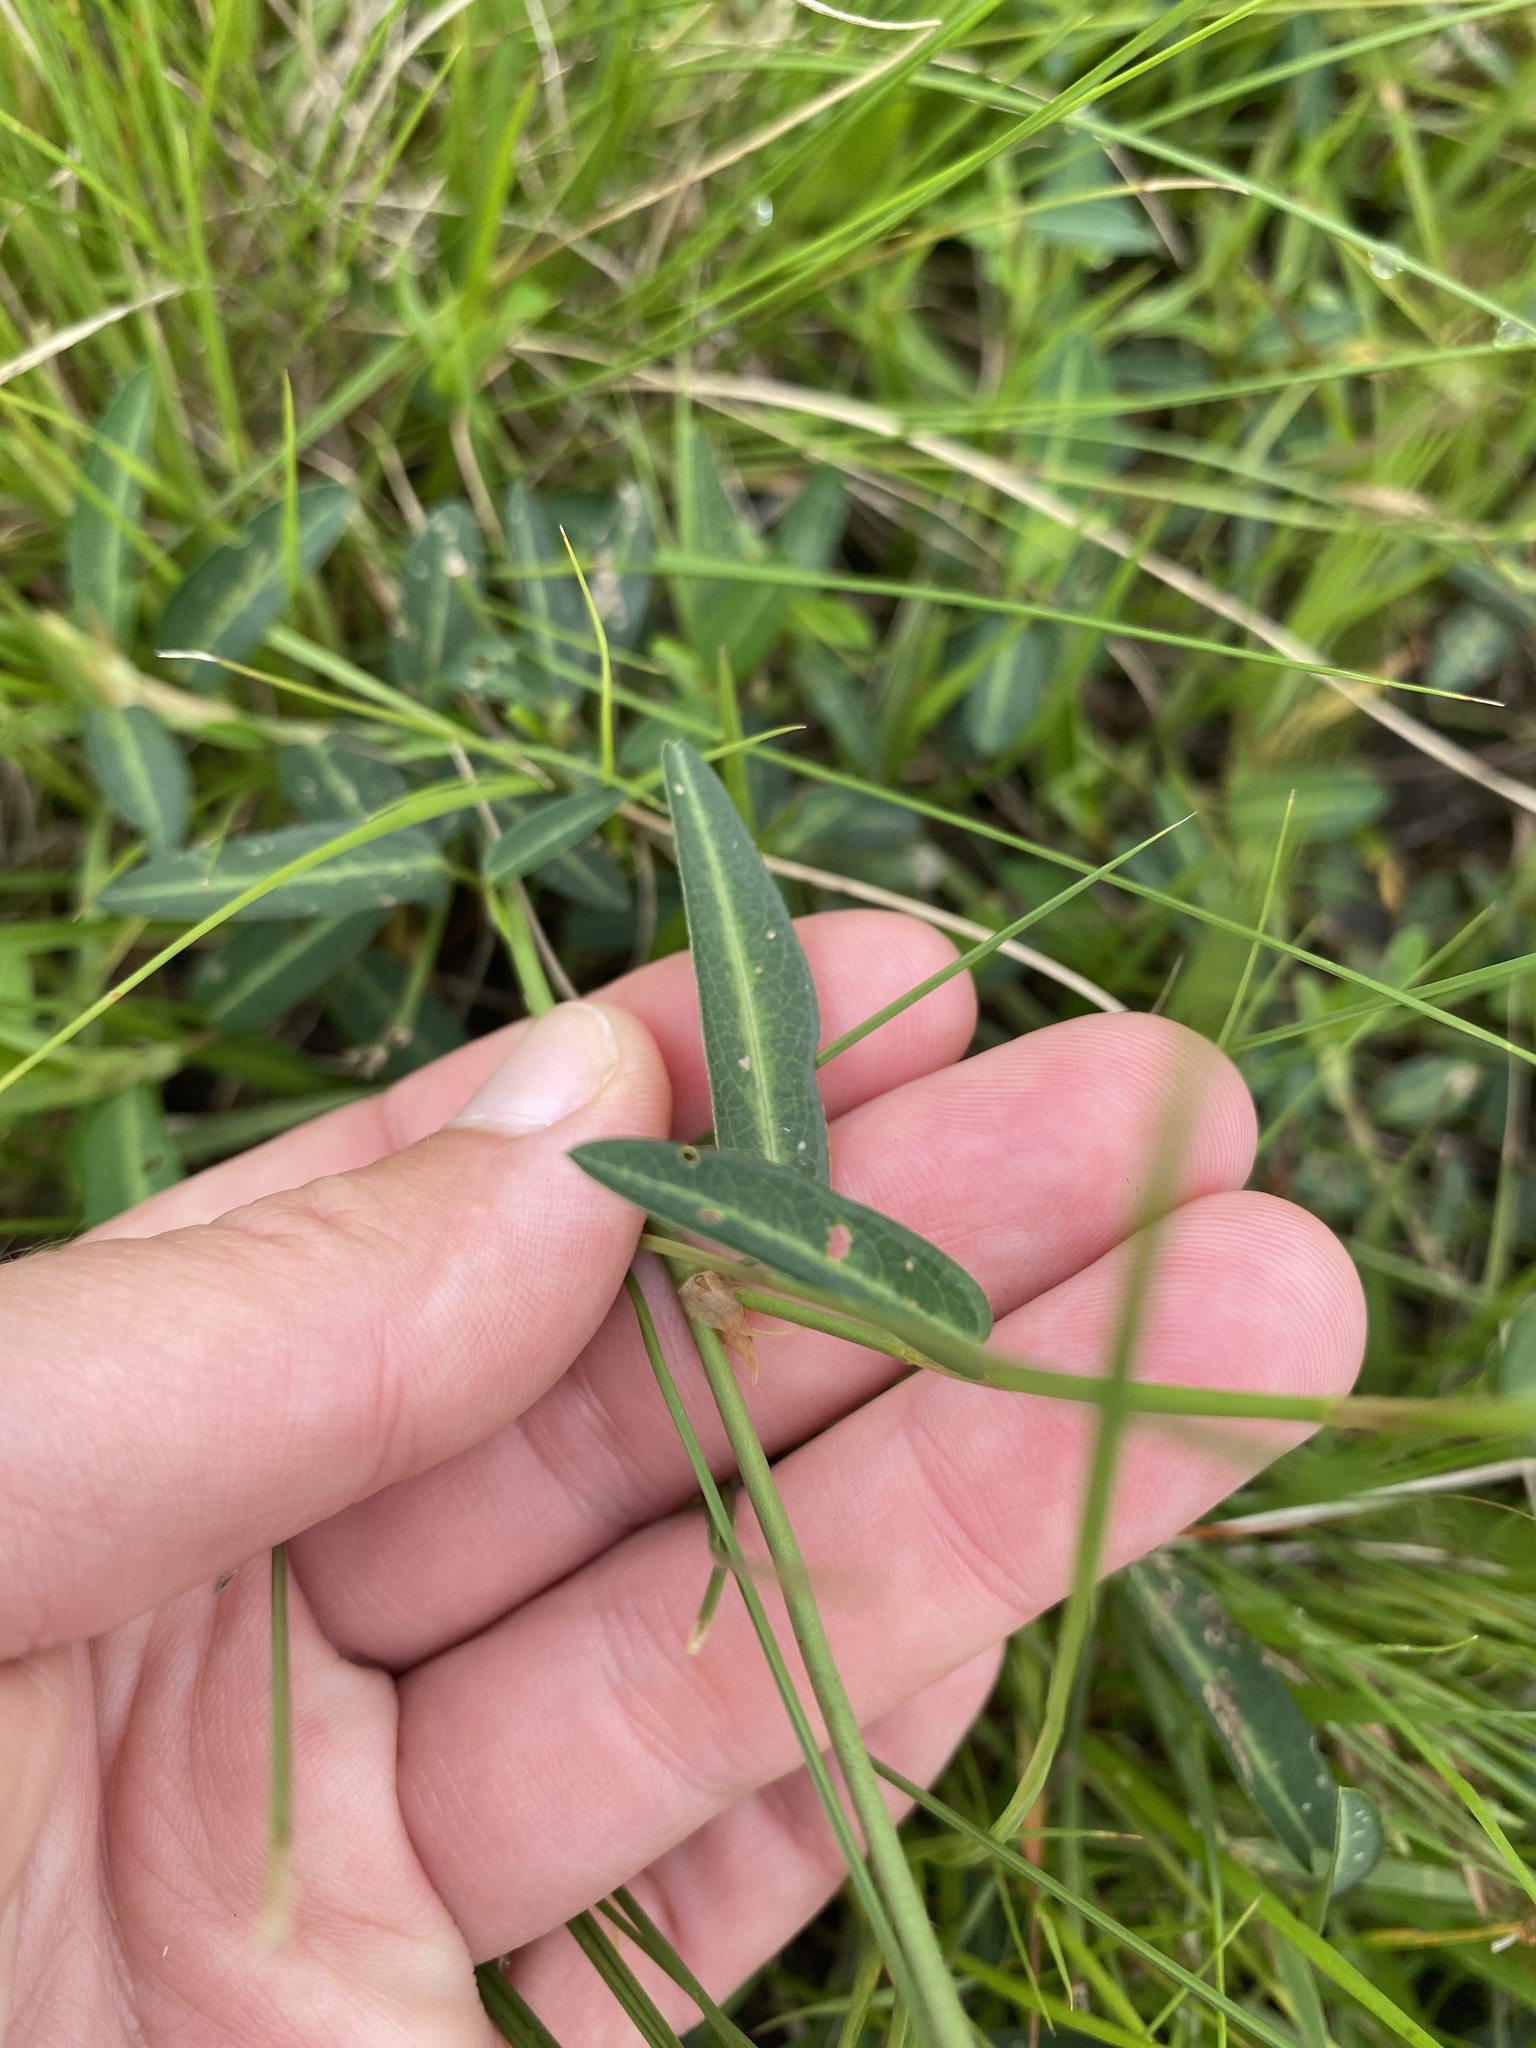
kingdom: Plantae
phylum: Tracheophyta
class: Magnoliopsida
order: Fabales
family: Fabaceae
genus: Alysicarpus
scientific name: Alysicarpus rugosus
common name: Red moneywort
